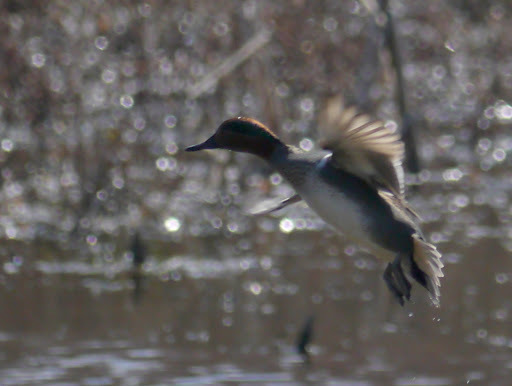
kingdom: Animalia
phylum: Chordata
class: Aves
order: Anseriformes
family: Anatidae
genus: Anas
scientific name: Anas crecca
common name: Eurasian teal
